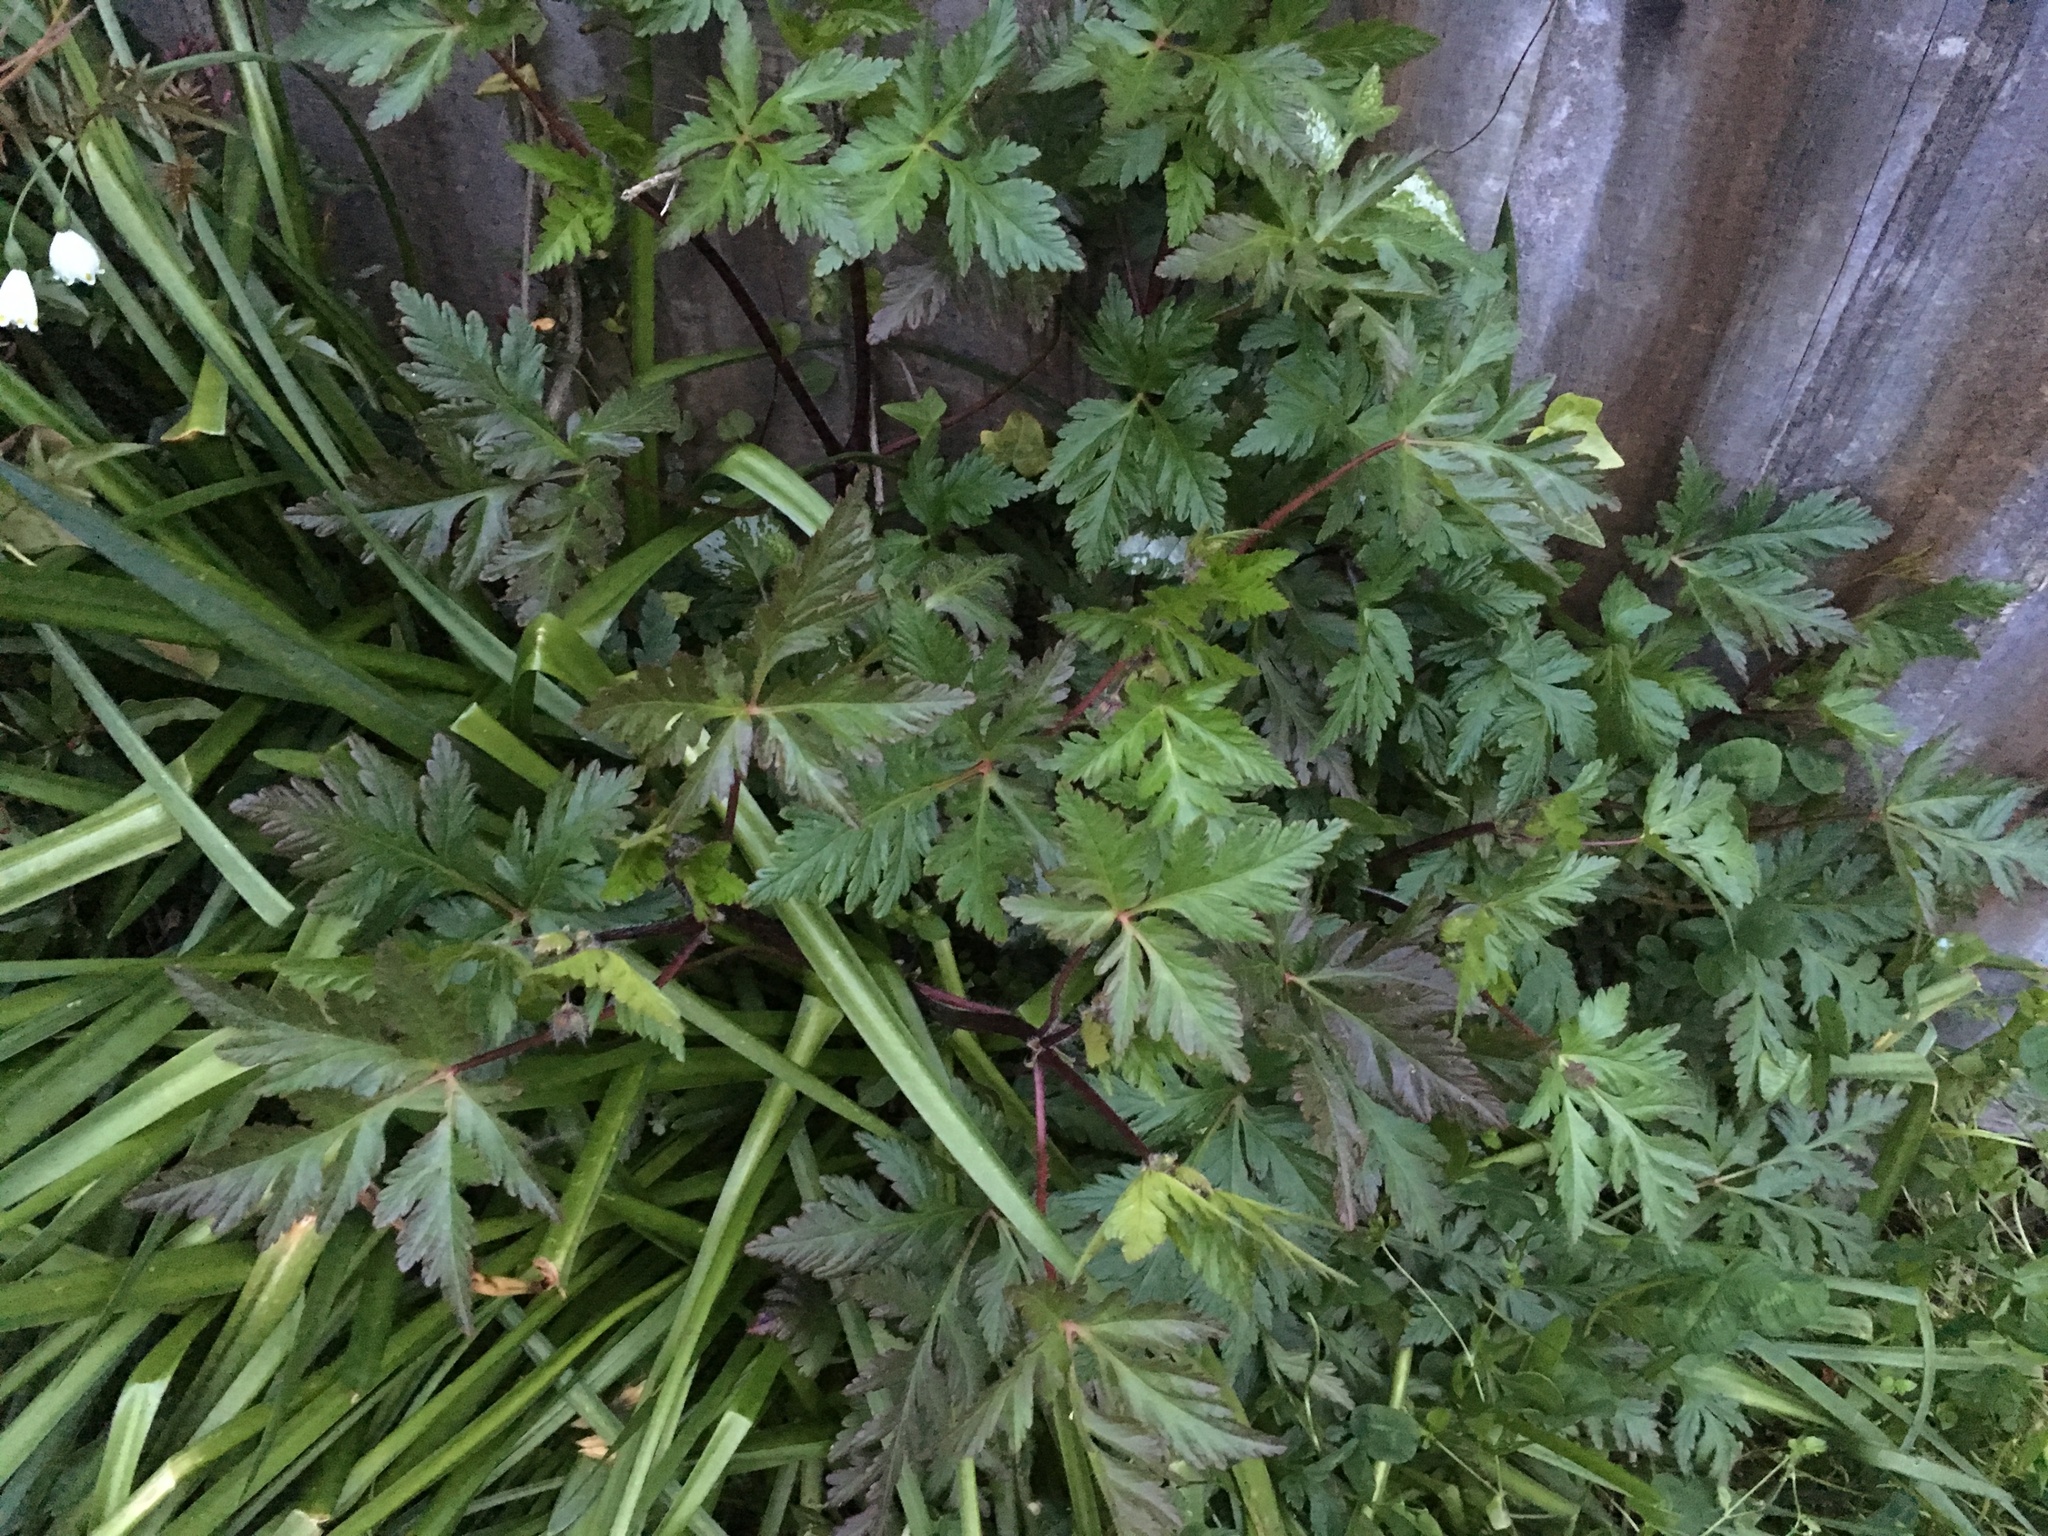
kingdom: Plantae
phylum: Tracheophyta
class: Magnoliopsida
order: Geraniales
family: Geraniaceae
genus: Geranium
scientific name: Geranium yeoi
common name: Greater herb robert
